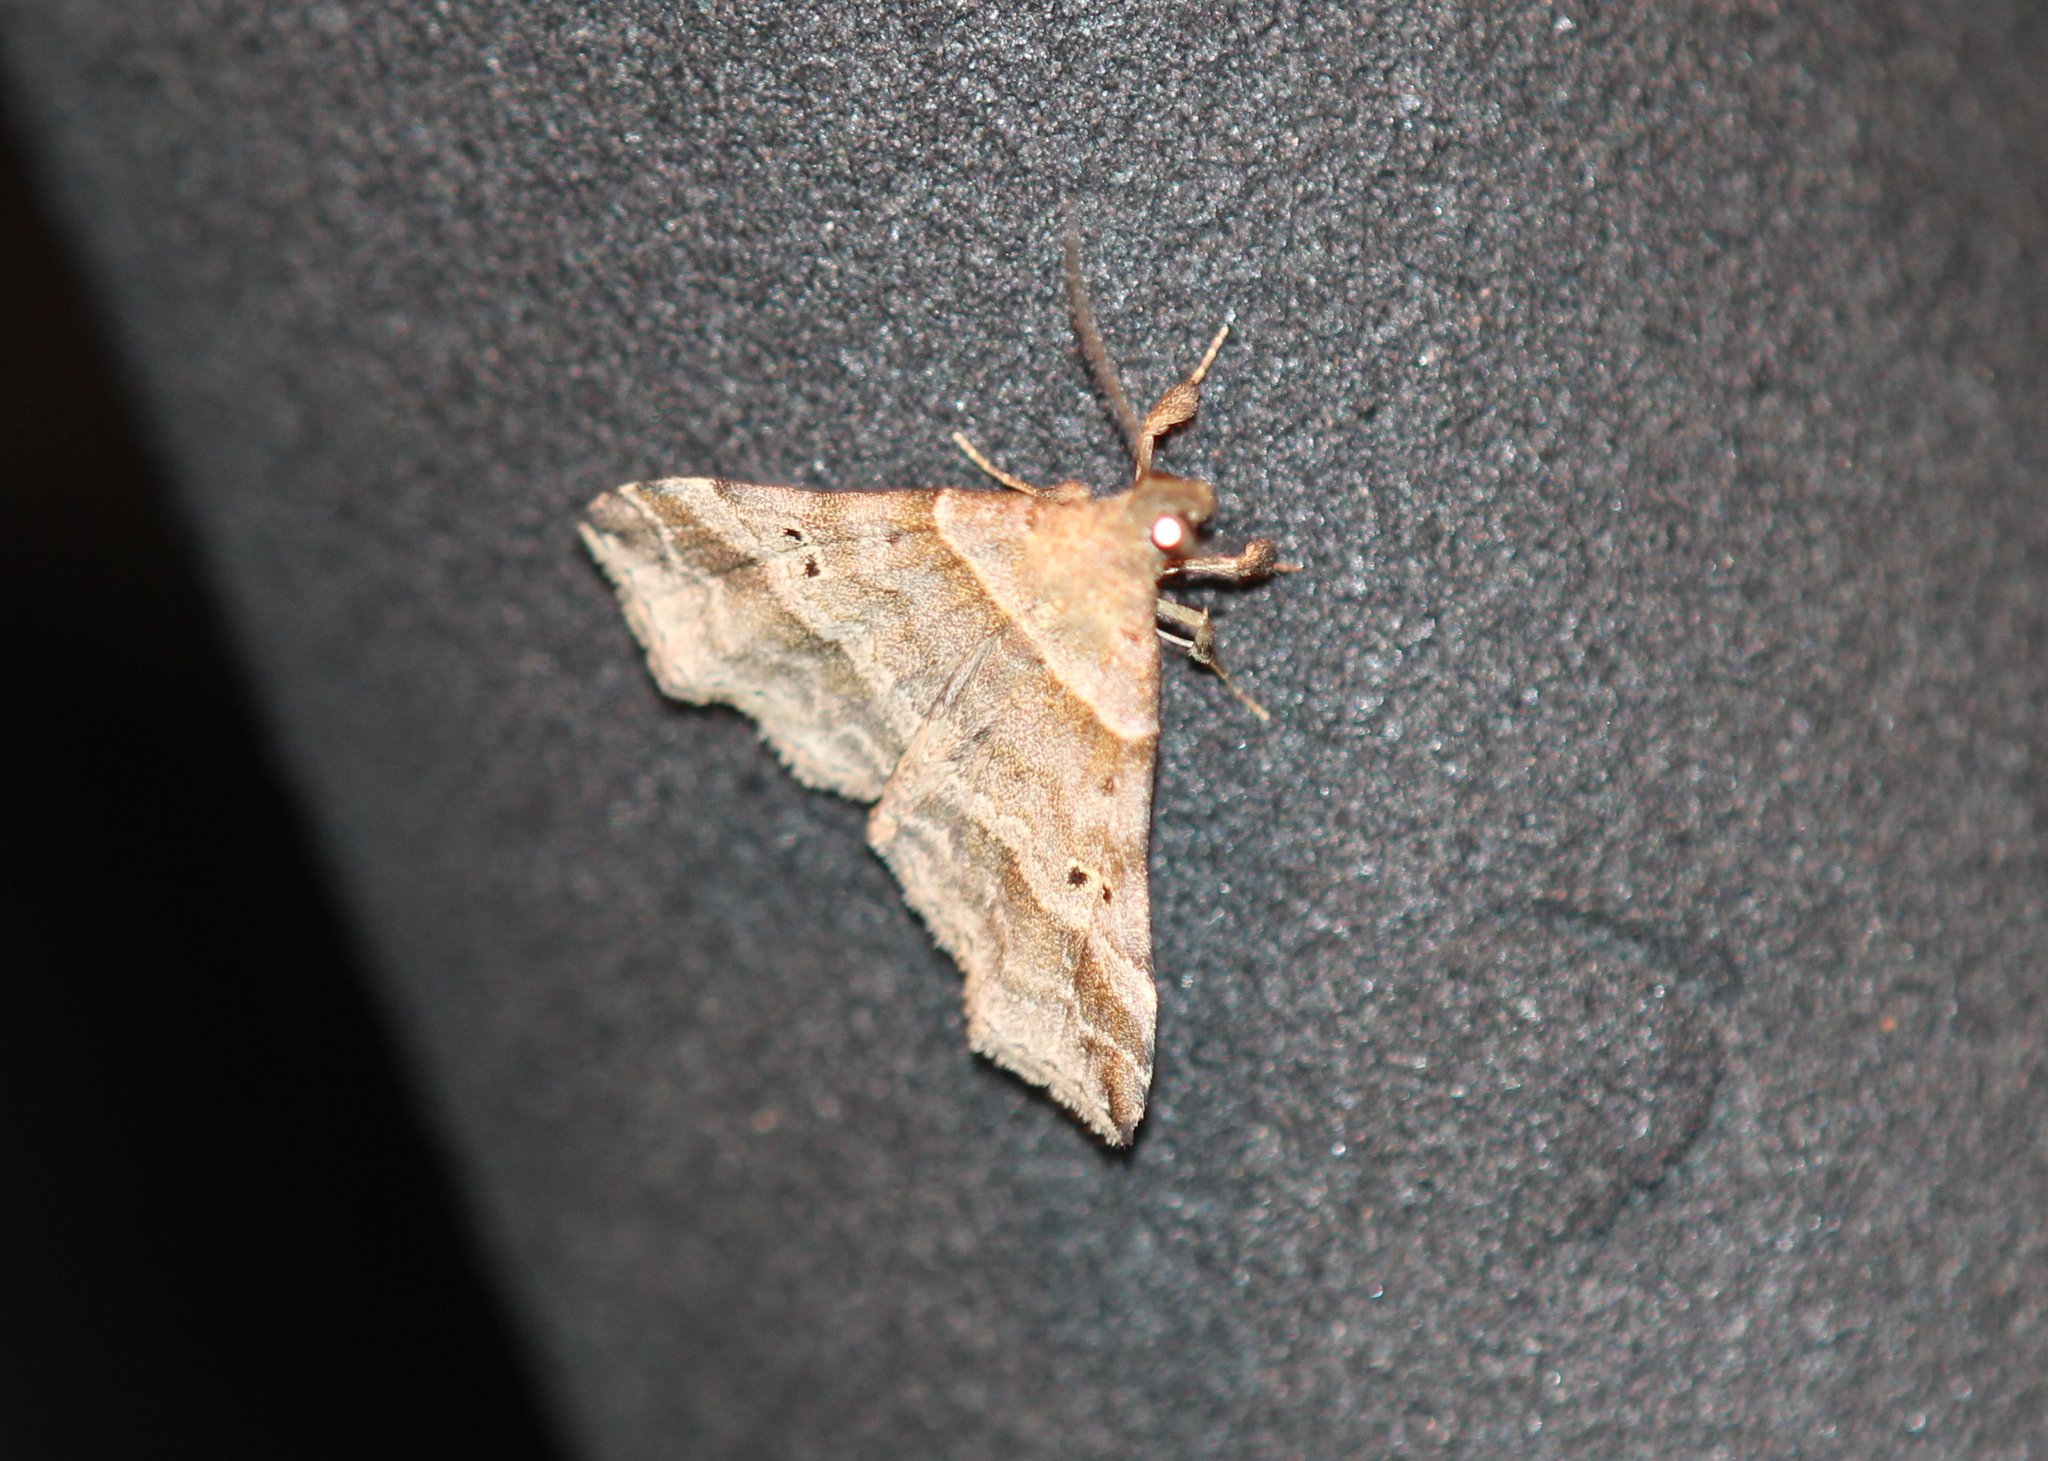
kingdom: Animalia
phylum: Arthropoda
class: Insecta
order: Lepidoptera
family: Erebidae
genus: Phaeolita
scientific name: Phaeolita pyramusalis
